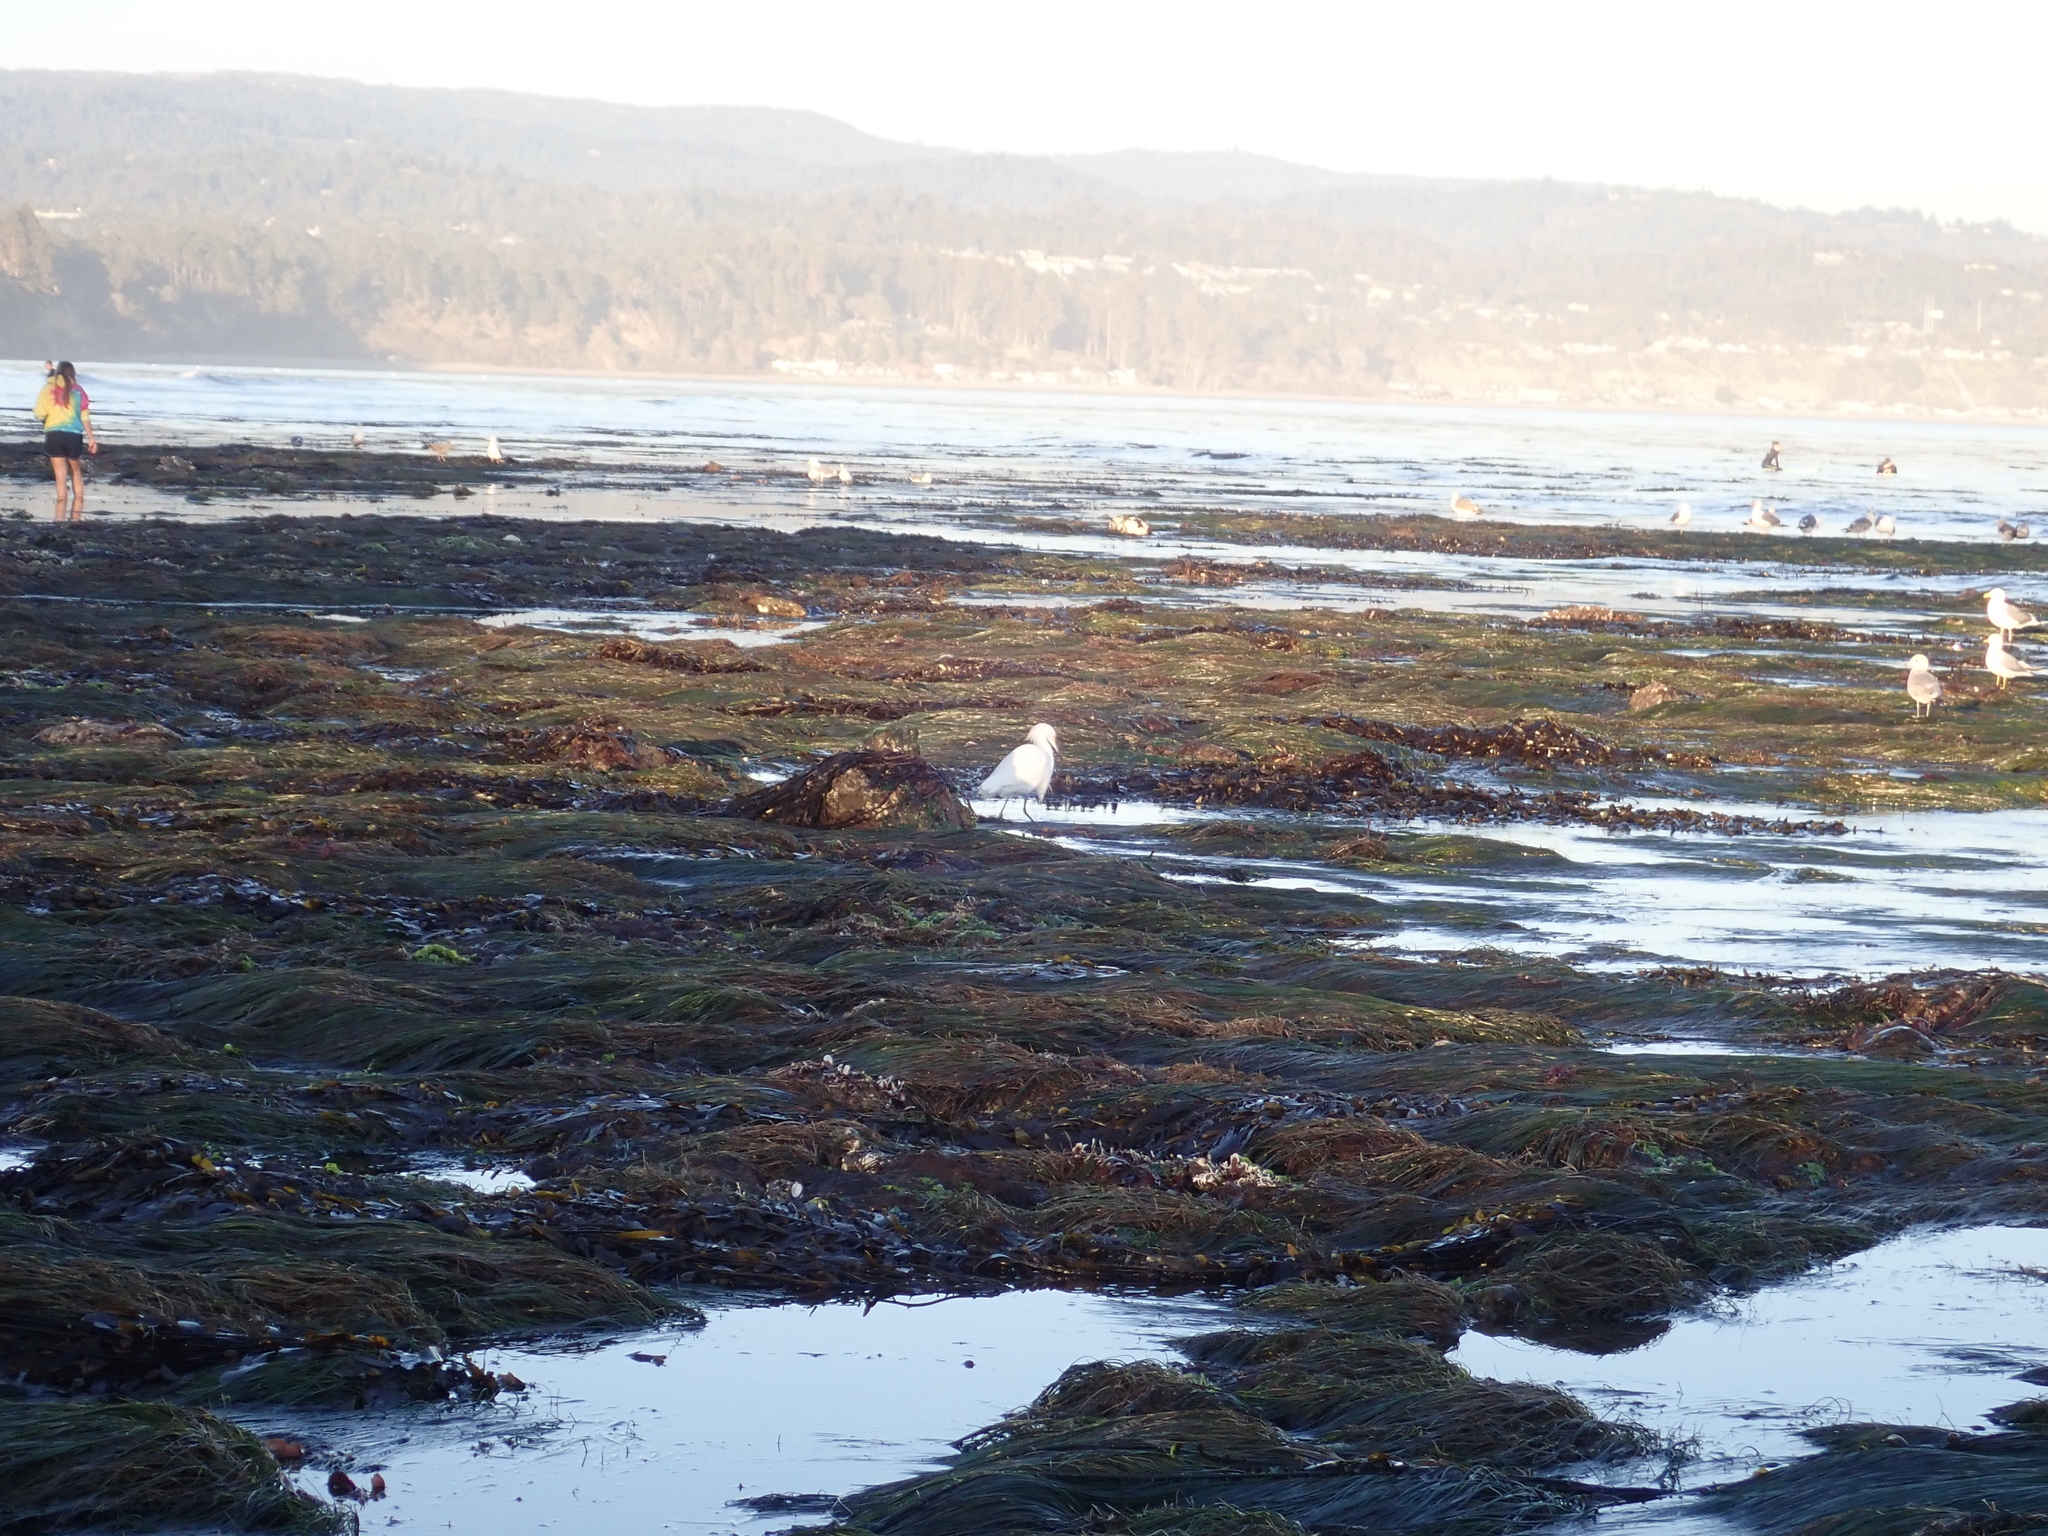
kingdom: Animalia
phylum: Chordata
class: Aves
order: Pelecaniformes
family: Ardeidae
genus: Egretta
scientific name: Egretta thula
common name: Snowy egret
